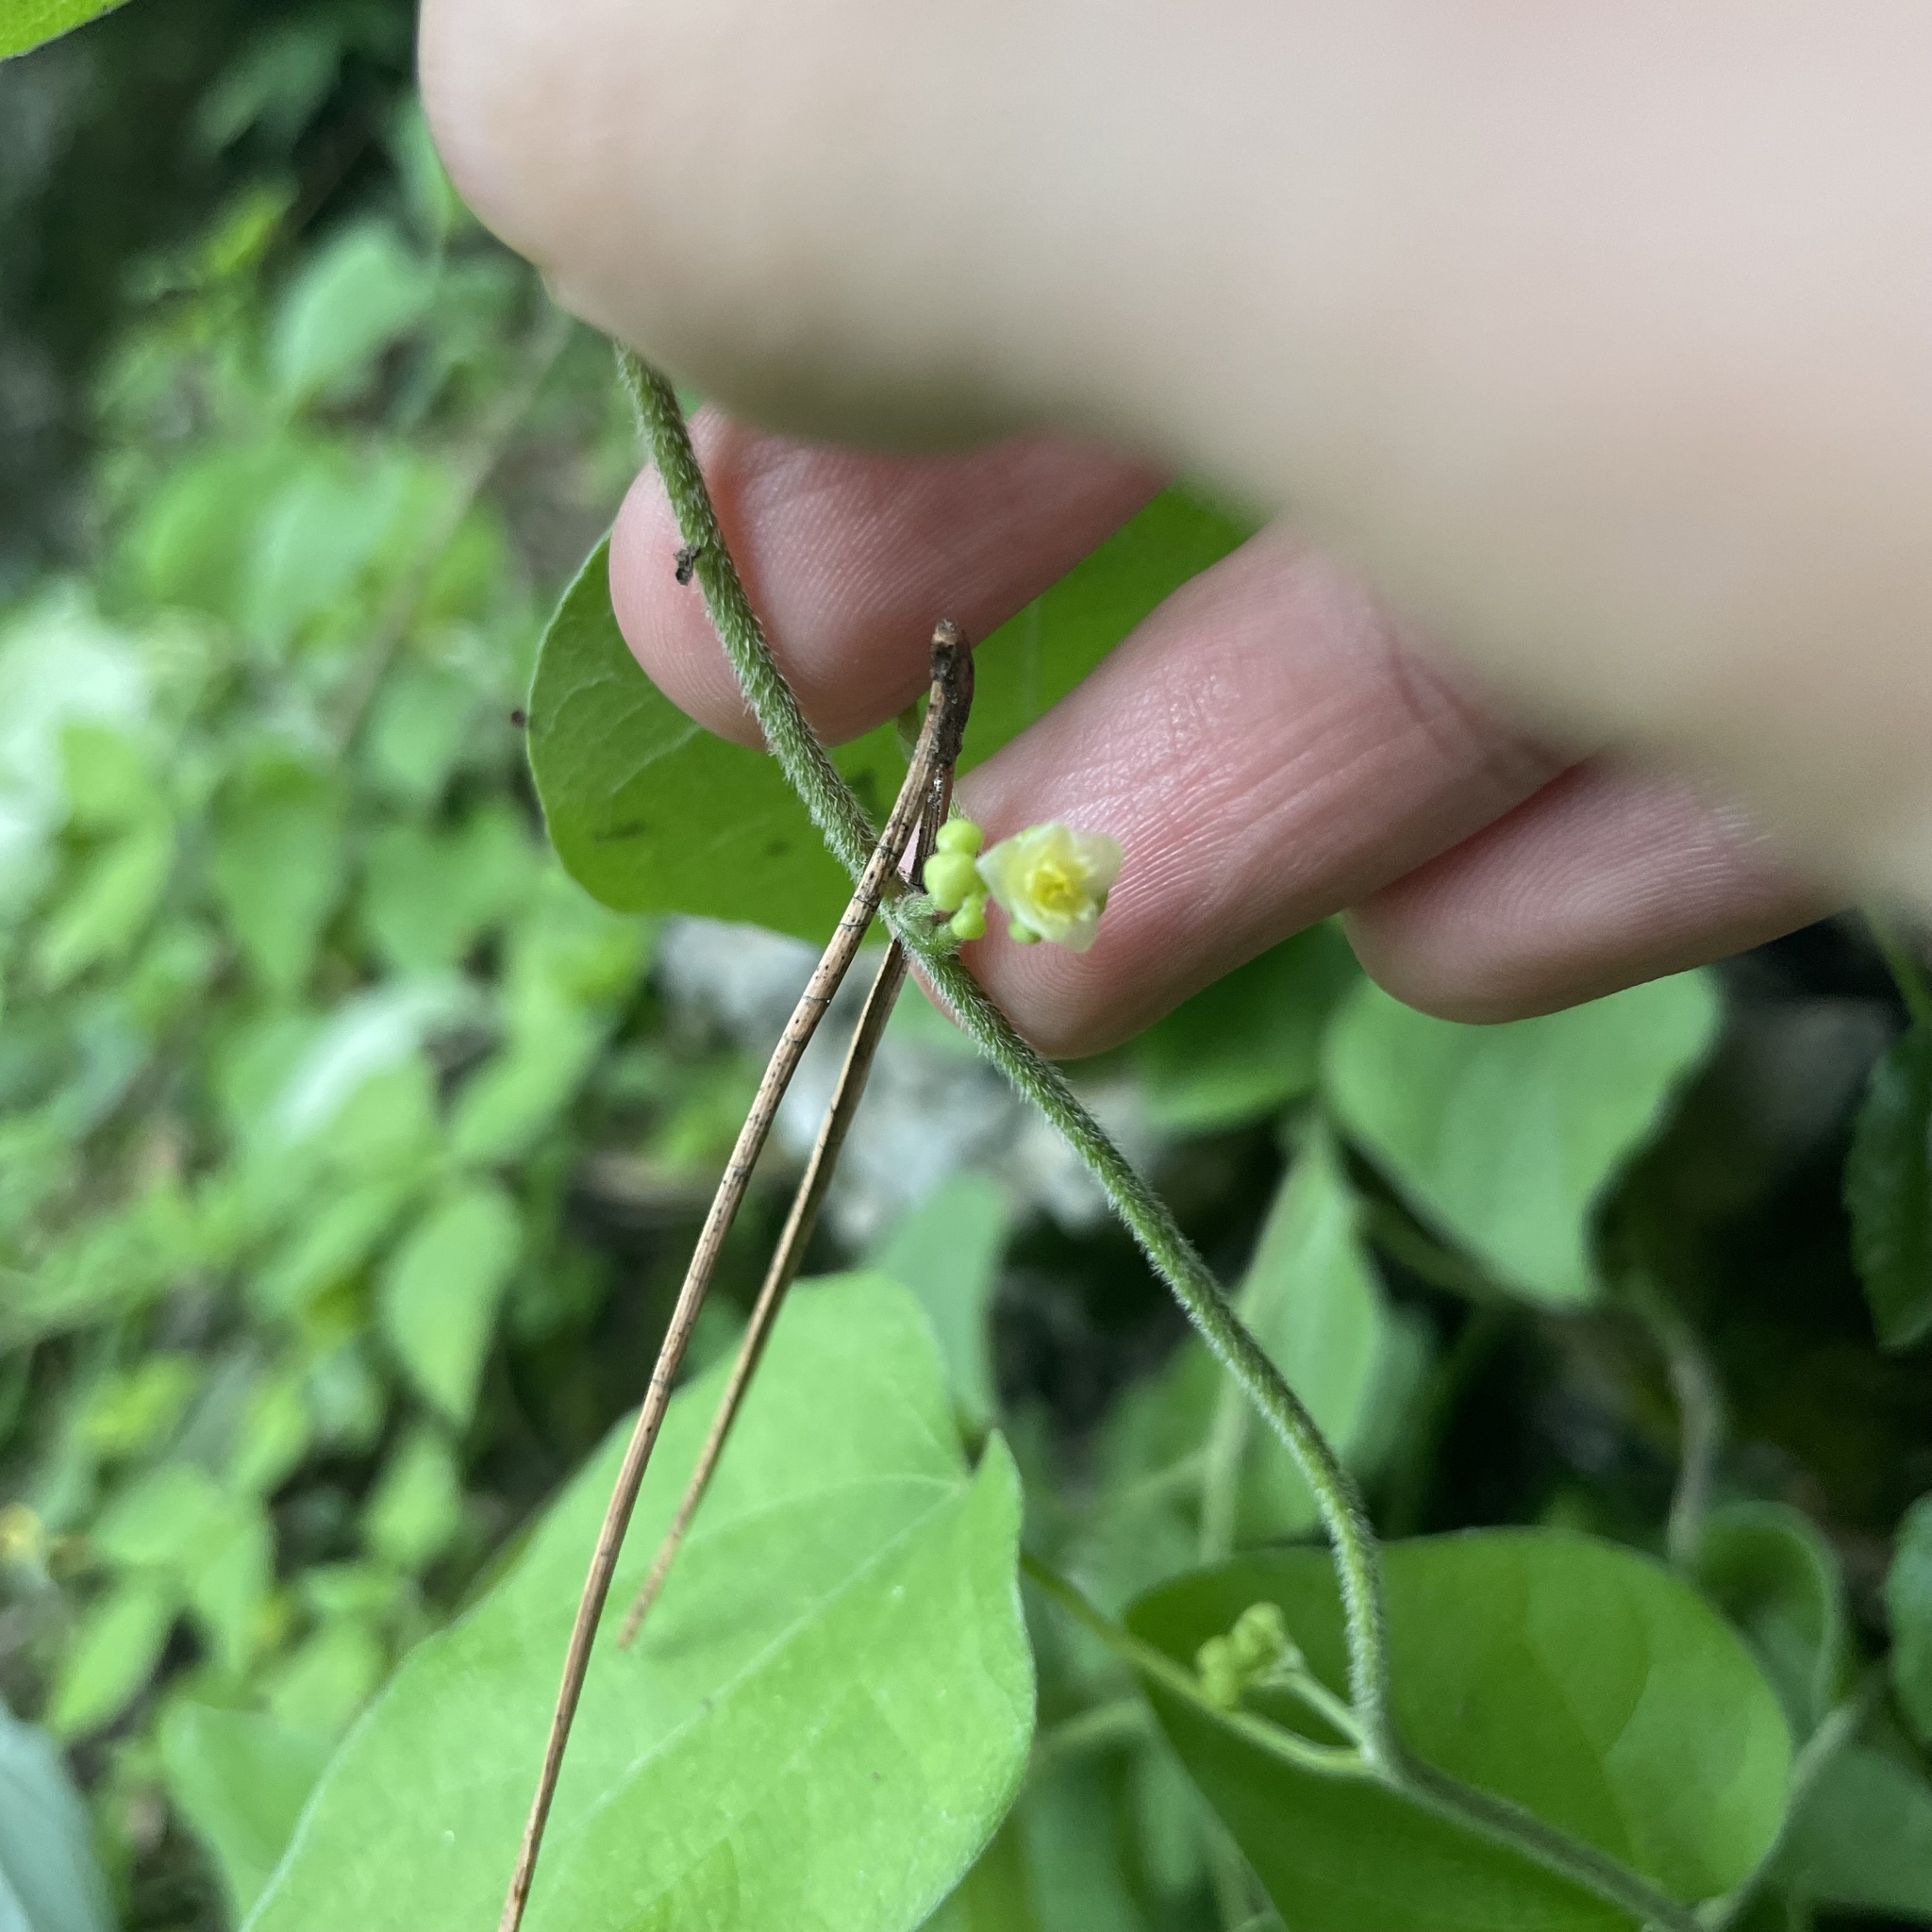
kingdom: Plantae
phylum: Tracheophyta
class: Magnoliopsida
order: Ranunculales
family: Menispermaceae
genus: Cocculus
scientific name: Cocculus orbiculatus
